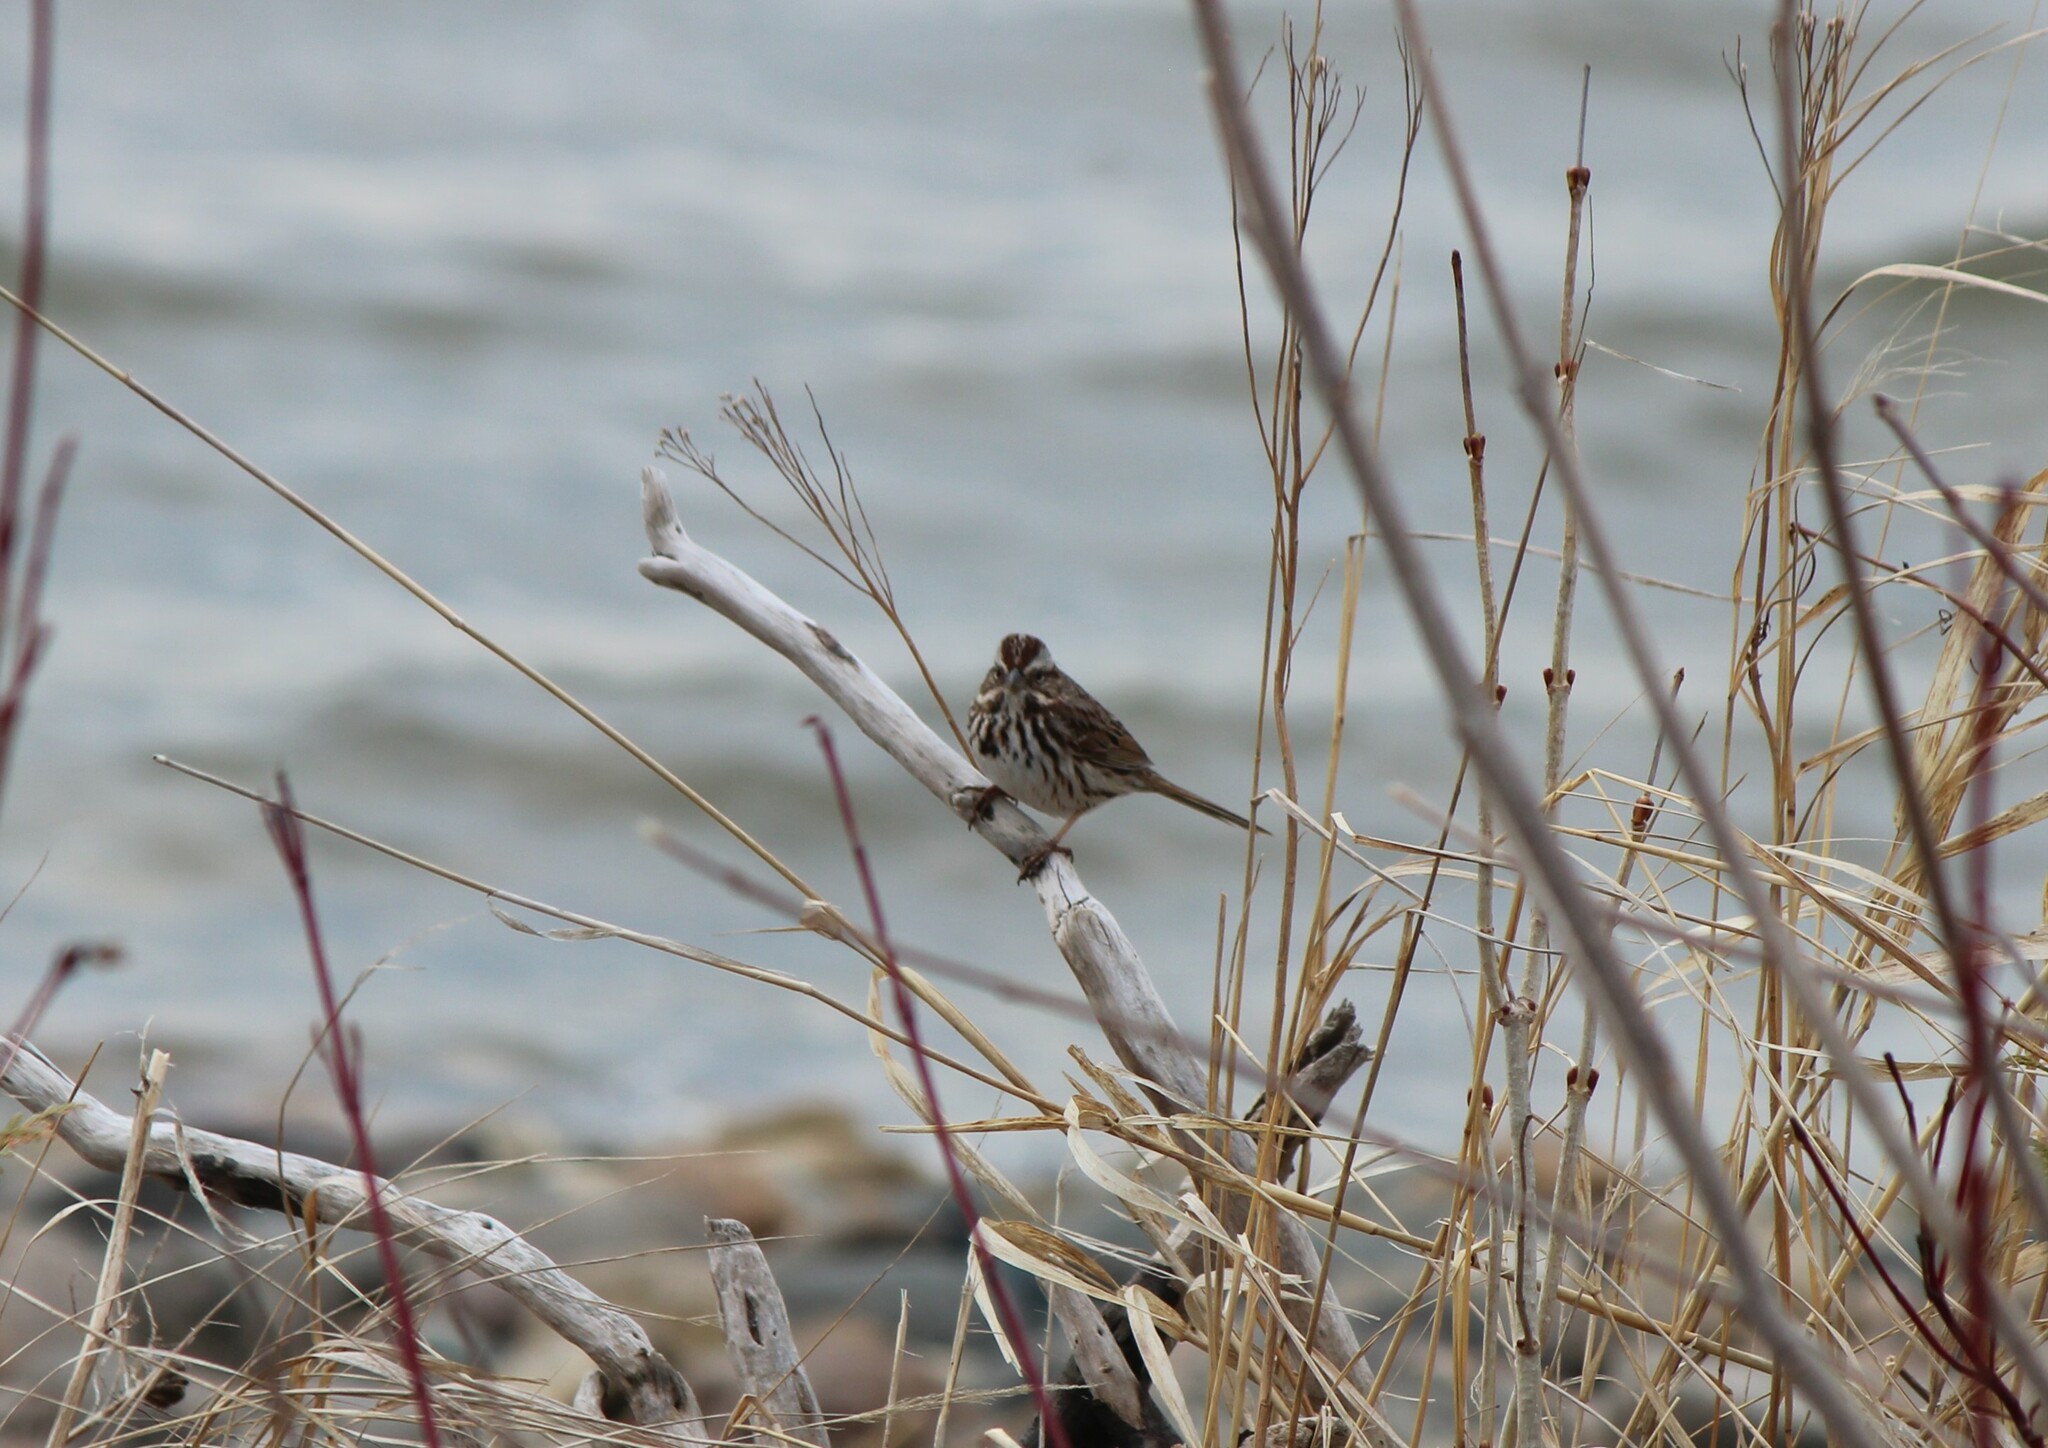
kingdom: Animalia
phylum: Chordata
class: Aves
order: Passeriformes
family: Passerellidae
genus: Melospiza
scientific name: Melospiza melodia
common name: Song sparrow
